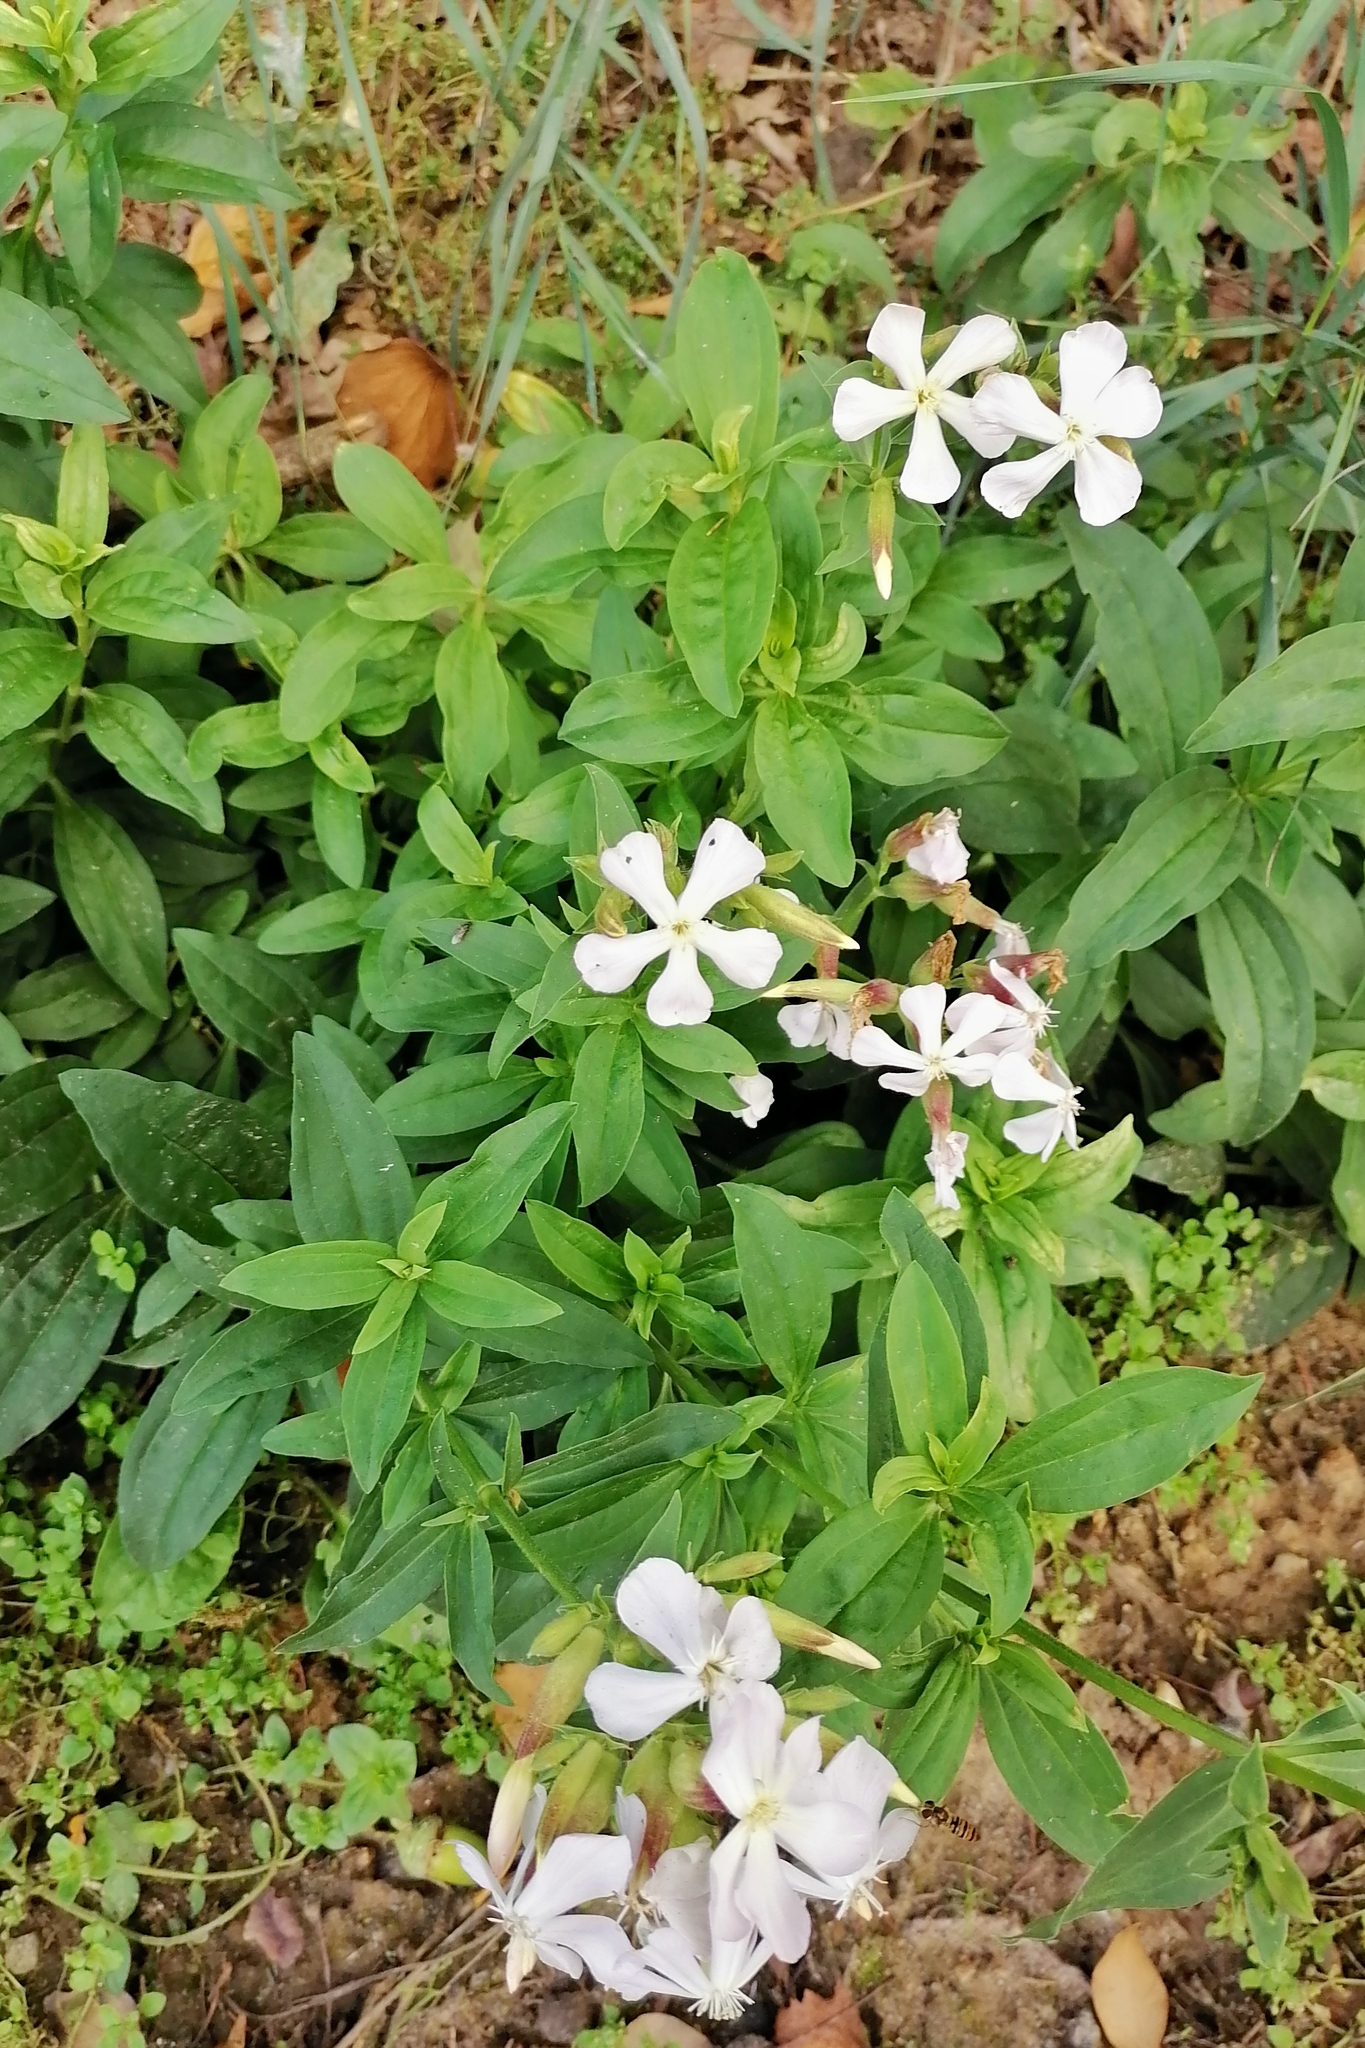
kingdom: Plantae
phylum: Tracheophyta
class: Magnoliopsida
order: Caryophyllales
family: Caryophyllaceae
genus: Saponaria
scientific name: Saponaria officinalis
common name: Soapwort
